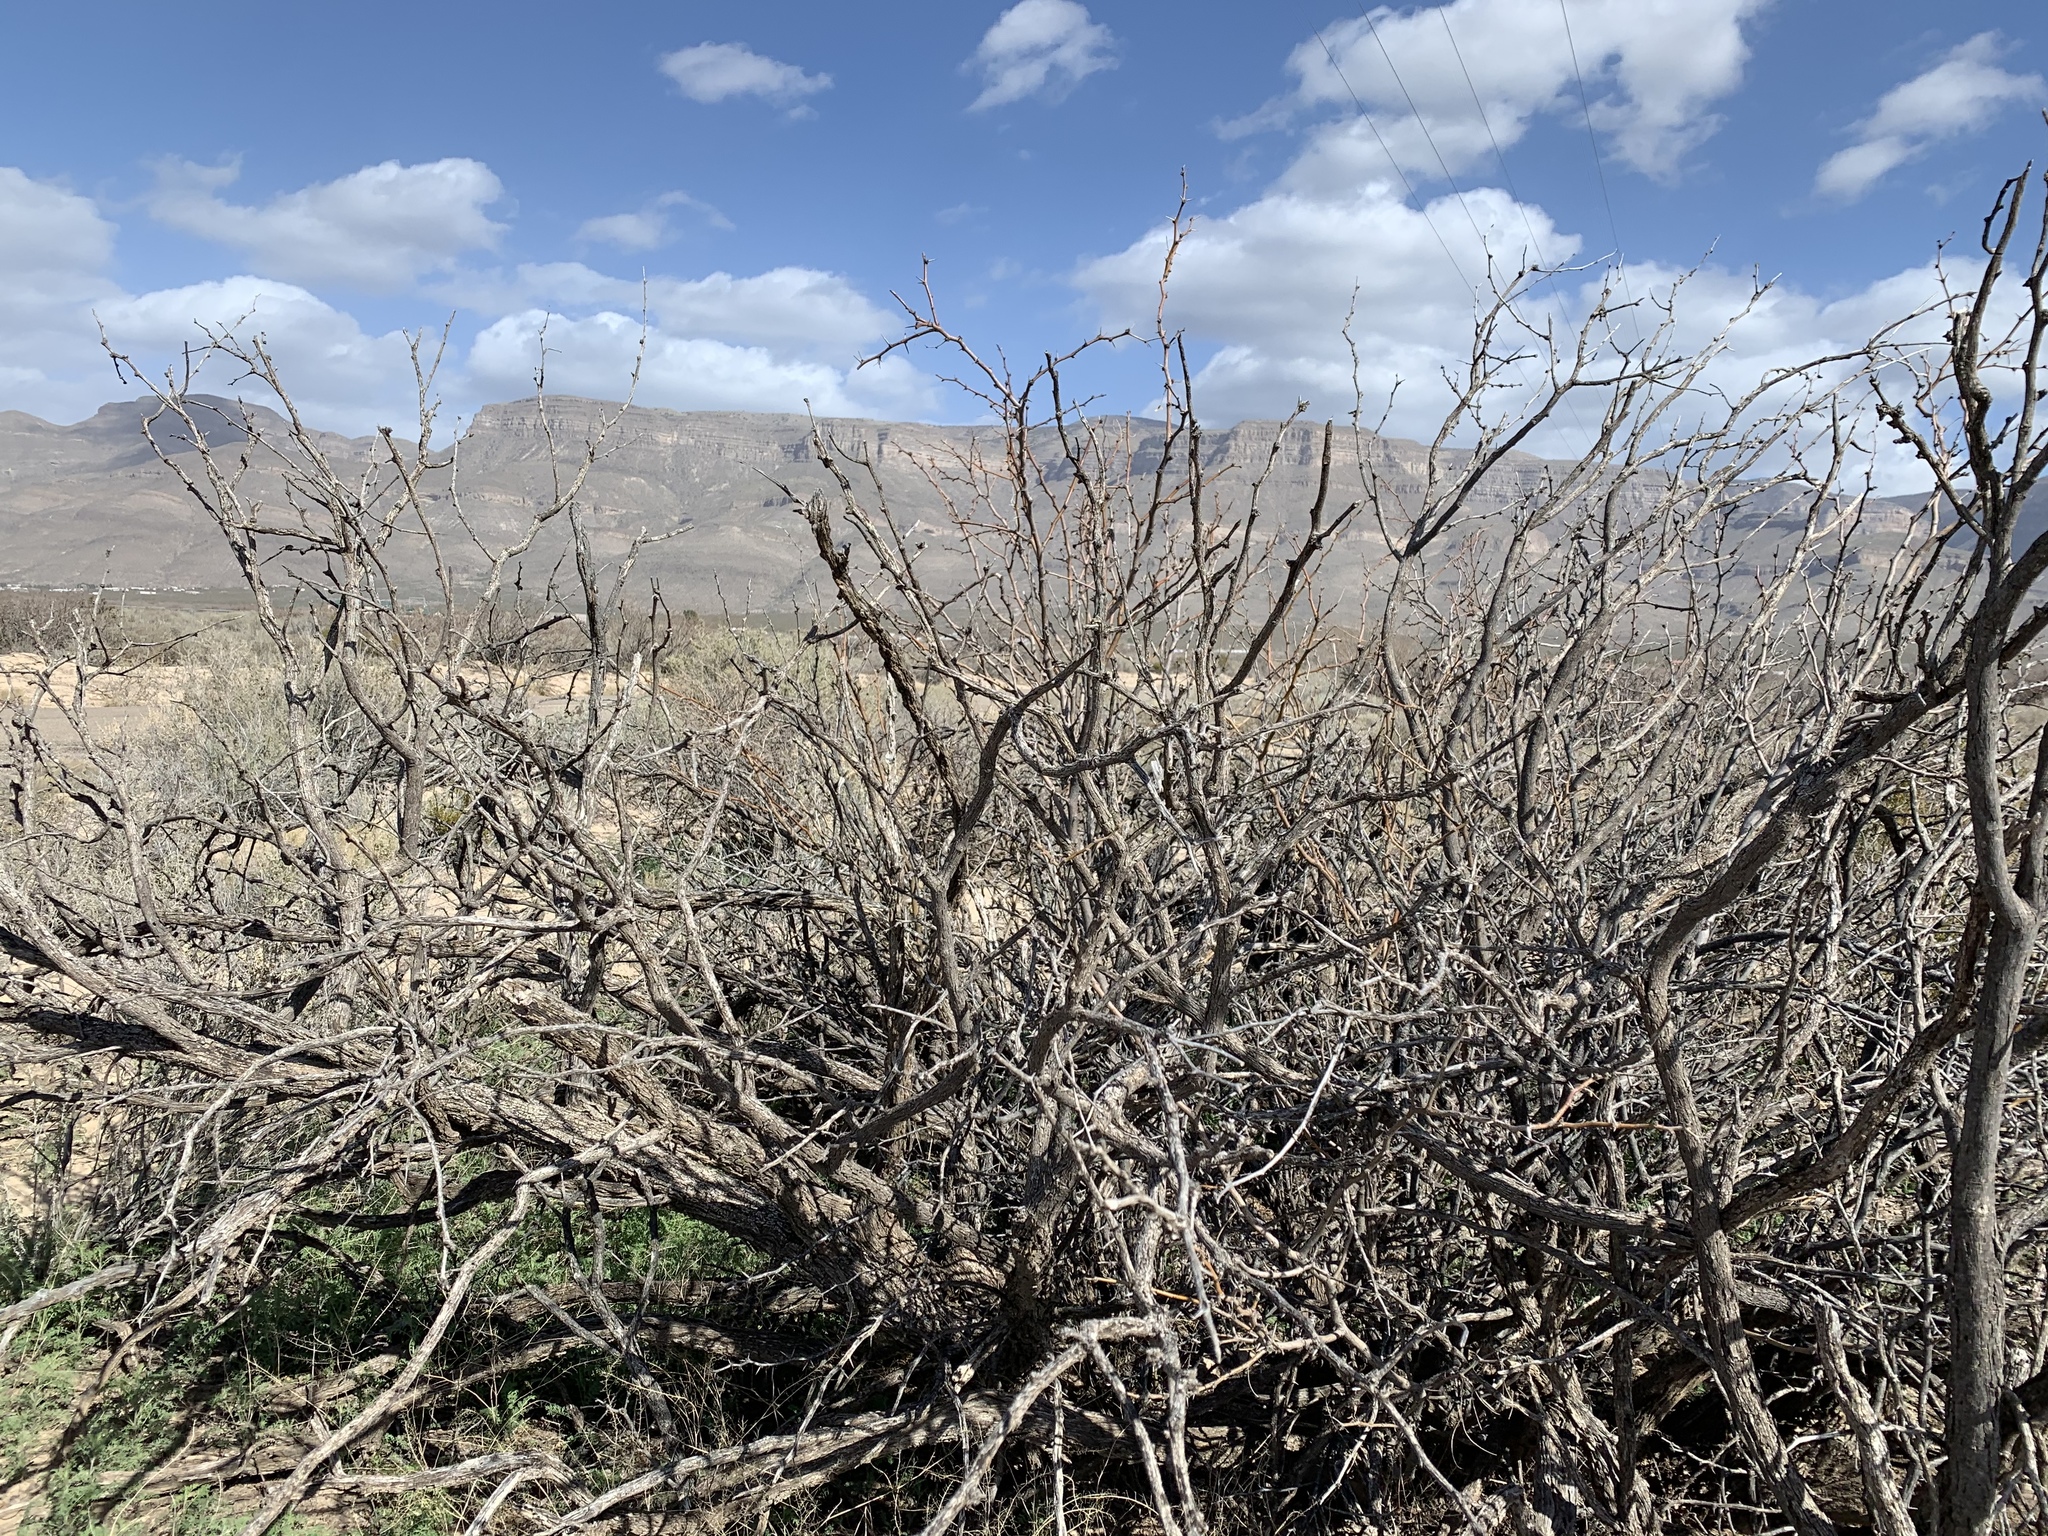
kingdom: Plantae
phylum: Tracheophyta
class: Magnoliopsida
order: Fabales
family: Fabaceae
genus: Prosopis
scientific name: Prosopis glandulosa
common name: Honey mesquite
